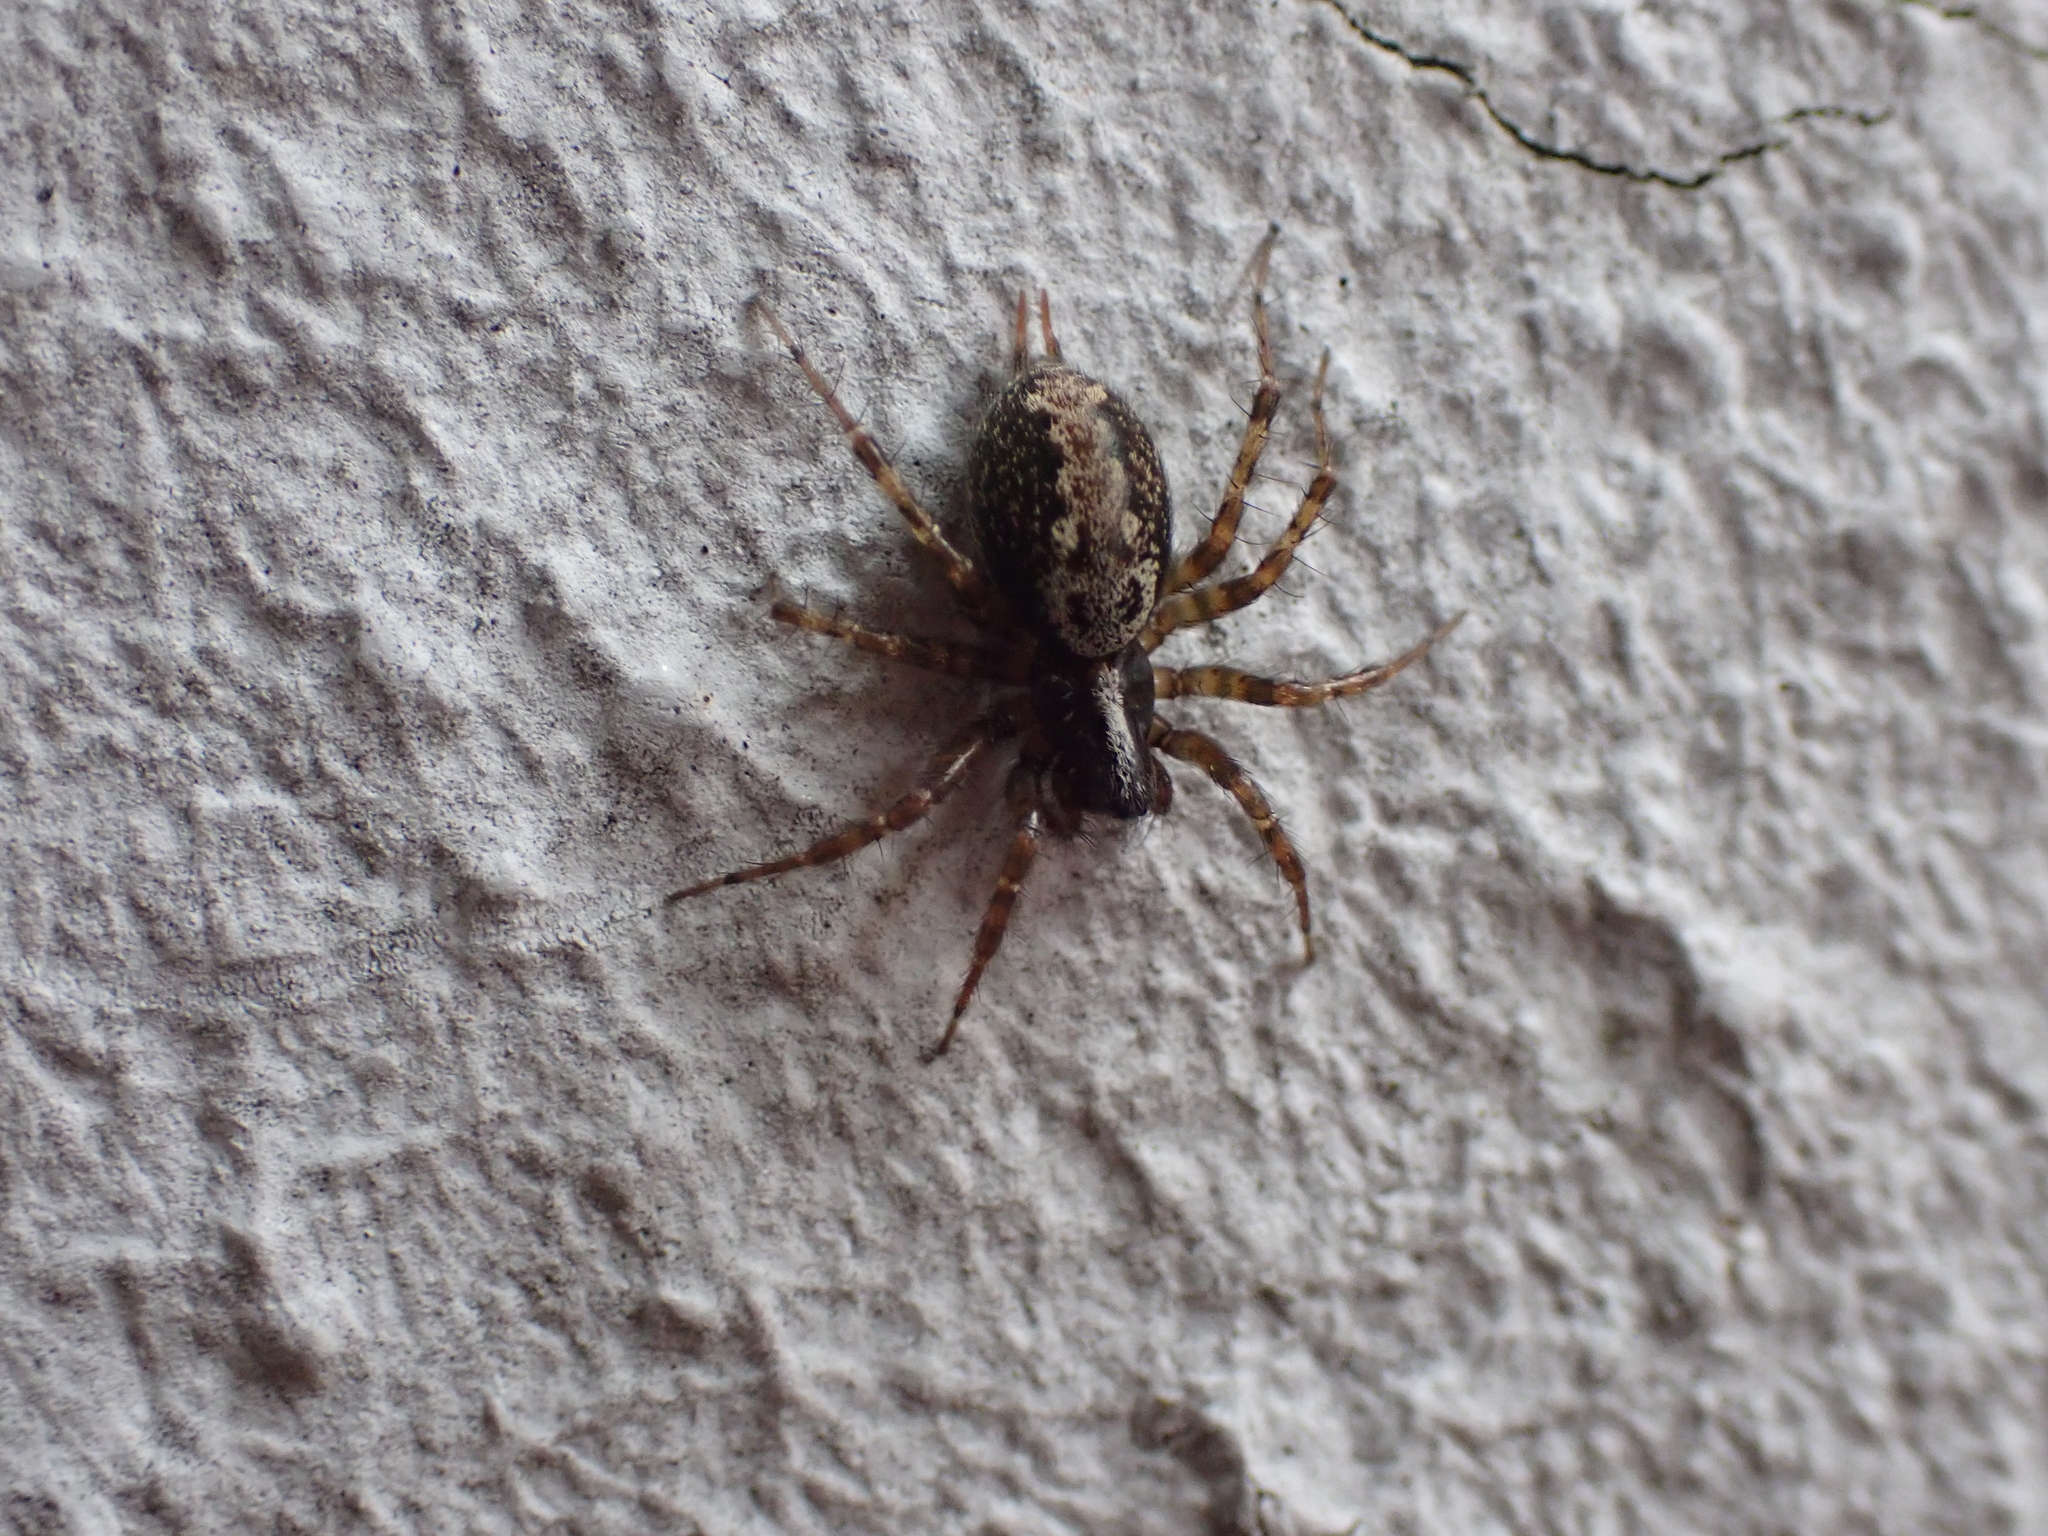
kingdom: Animalia
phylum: Arthropoda
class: Arachnida
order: Araneae
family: Agelenidae
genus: Textrix
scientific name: Textrix denticulata
